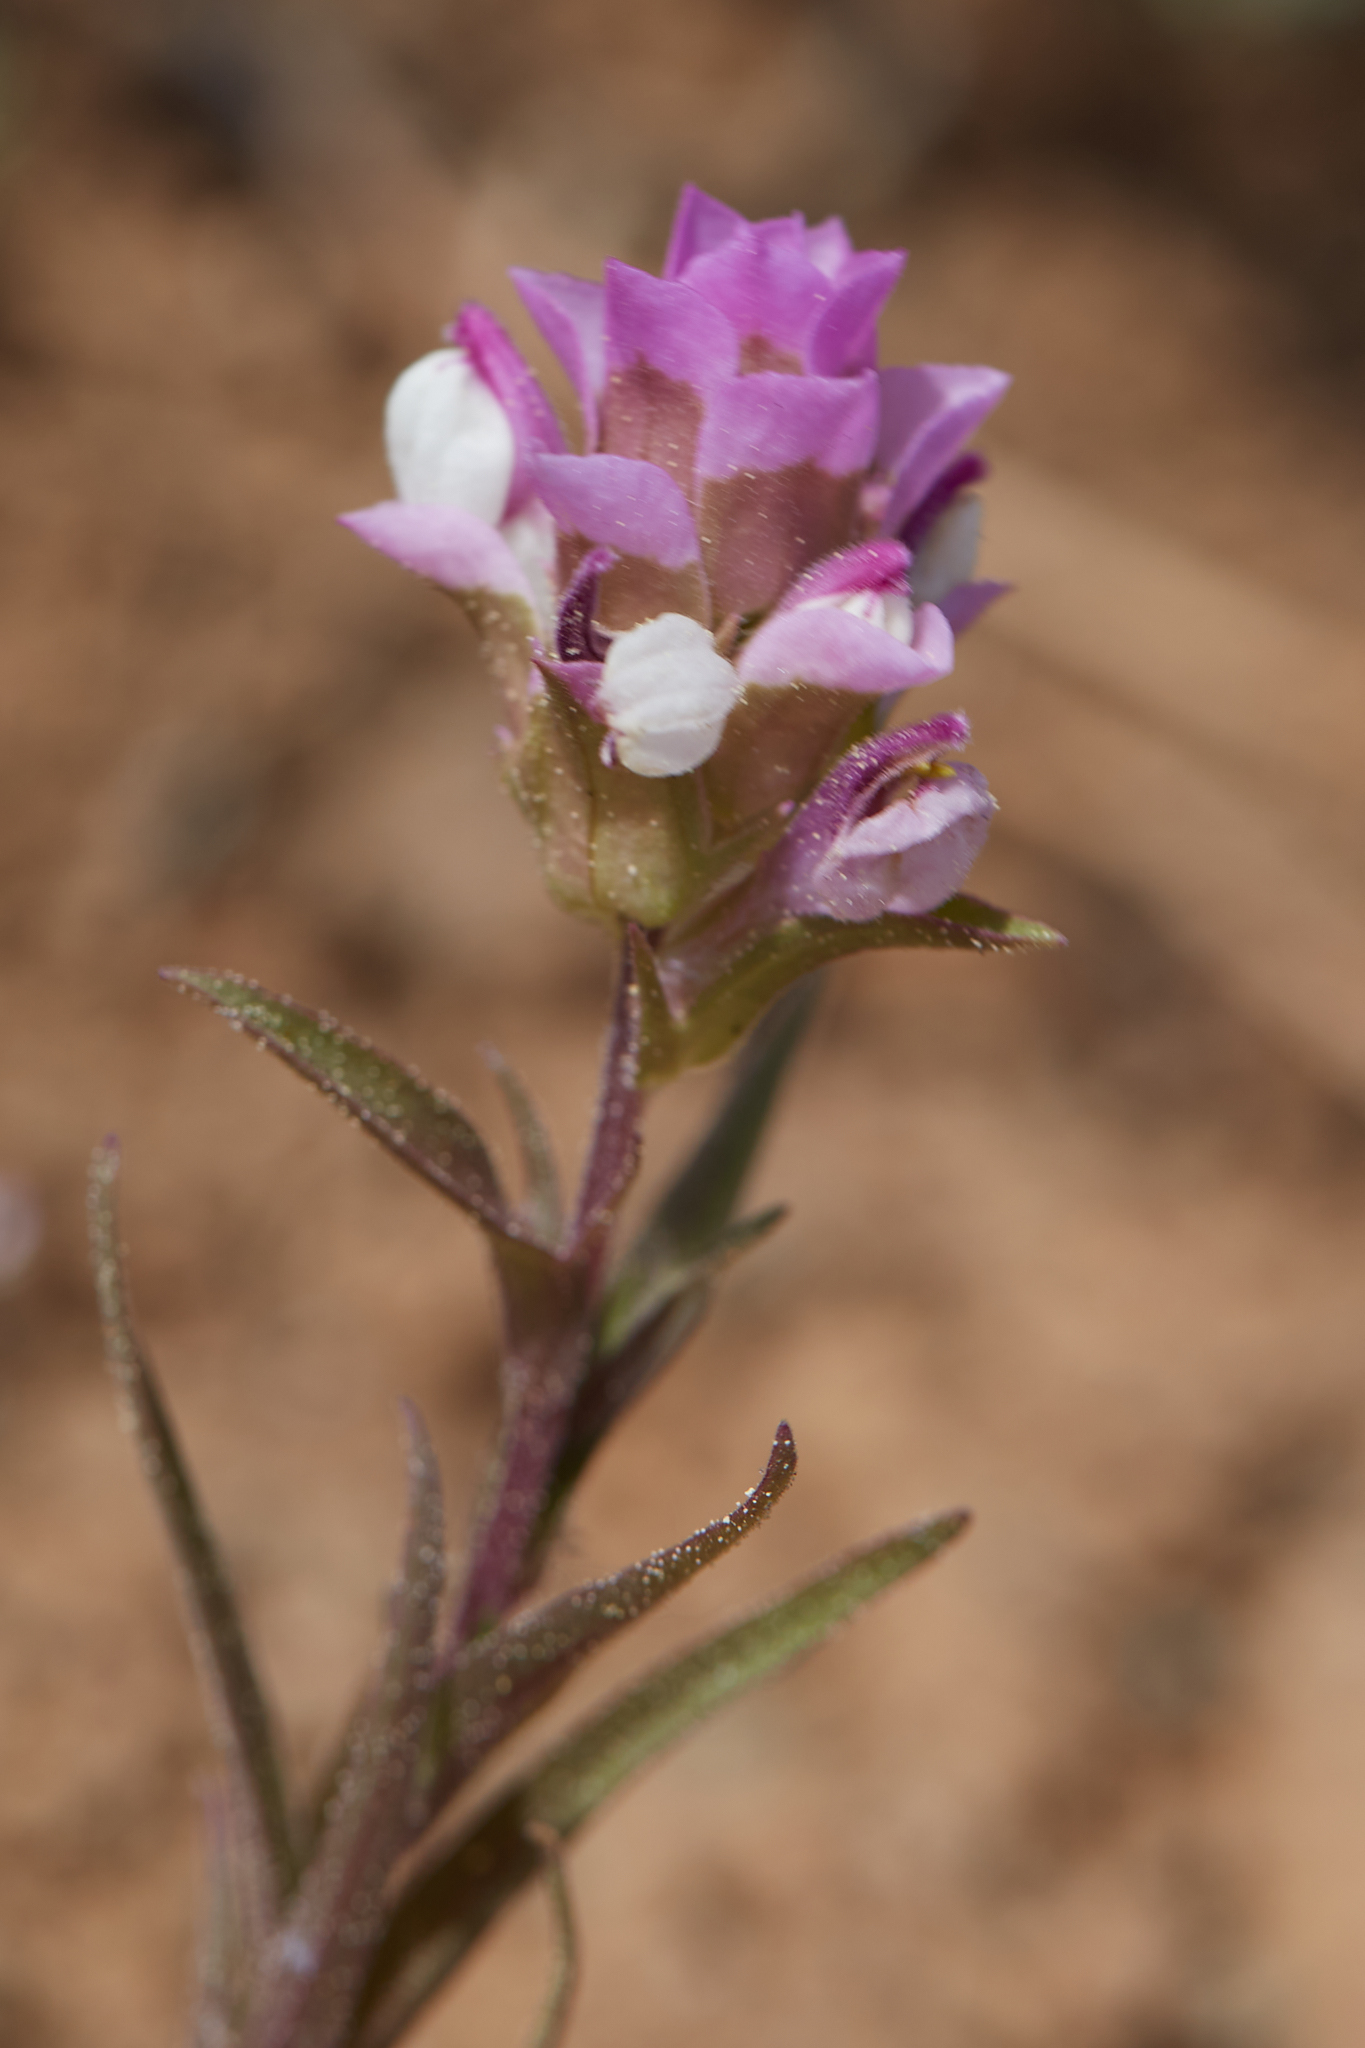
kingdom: Plantae
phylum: Tracheophyta
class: Magnoliopsida
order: Lamiales
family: Orobanchaceae
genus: Orthocarpus
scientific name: Orthocarpus cuspidatus
